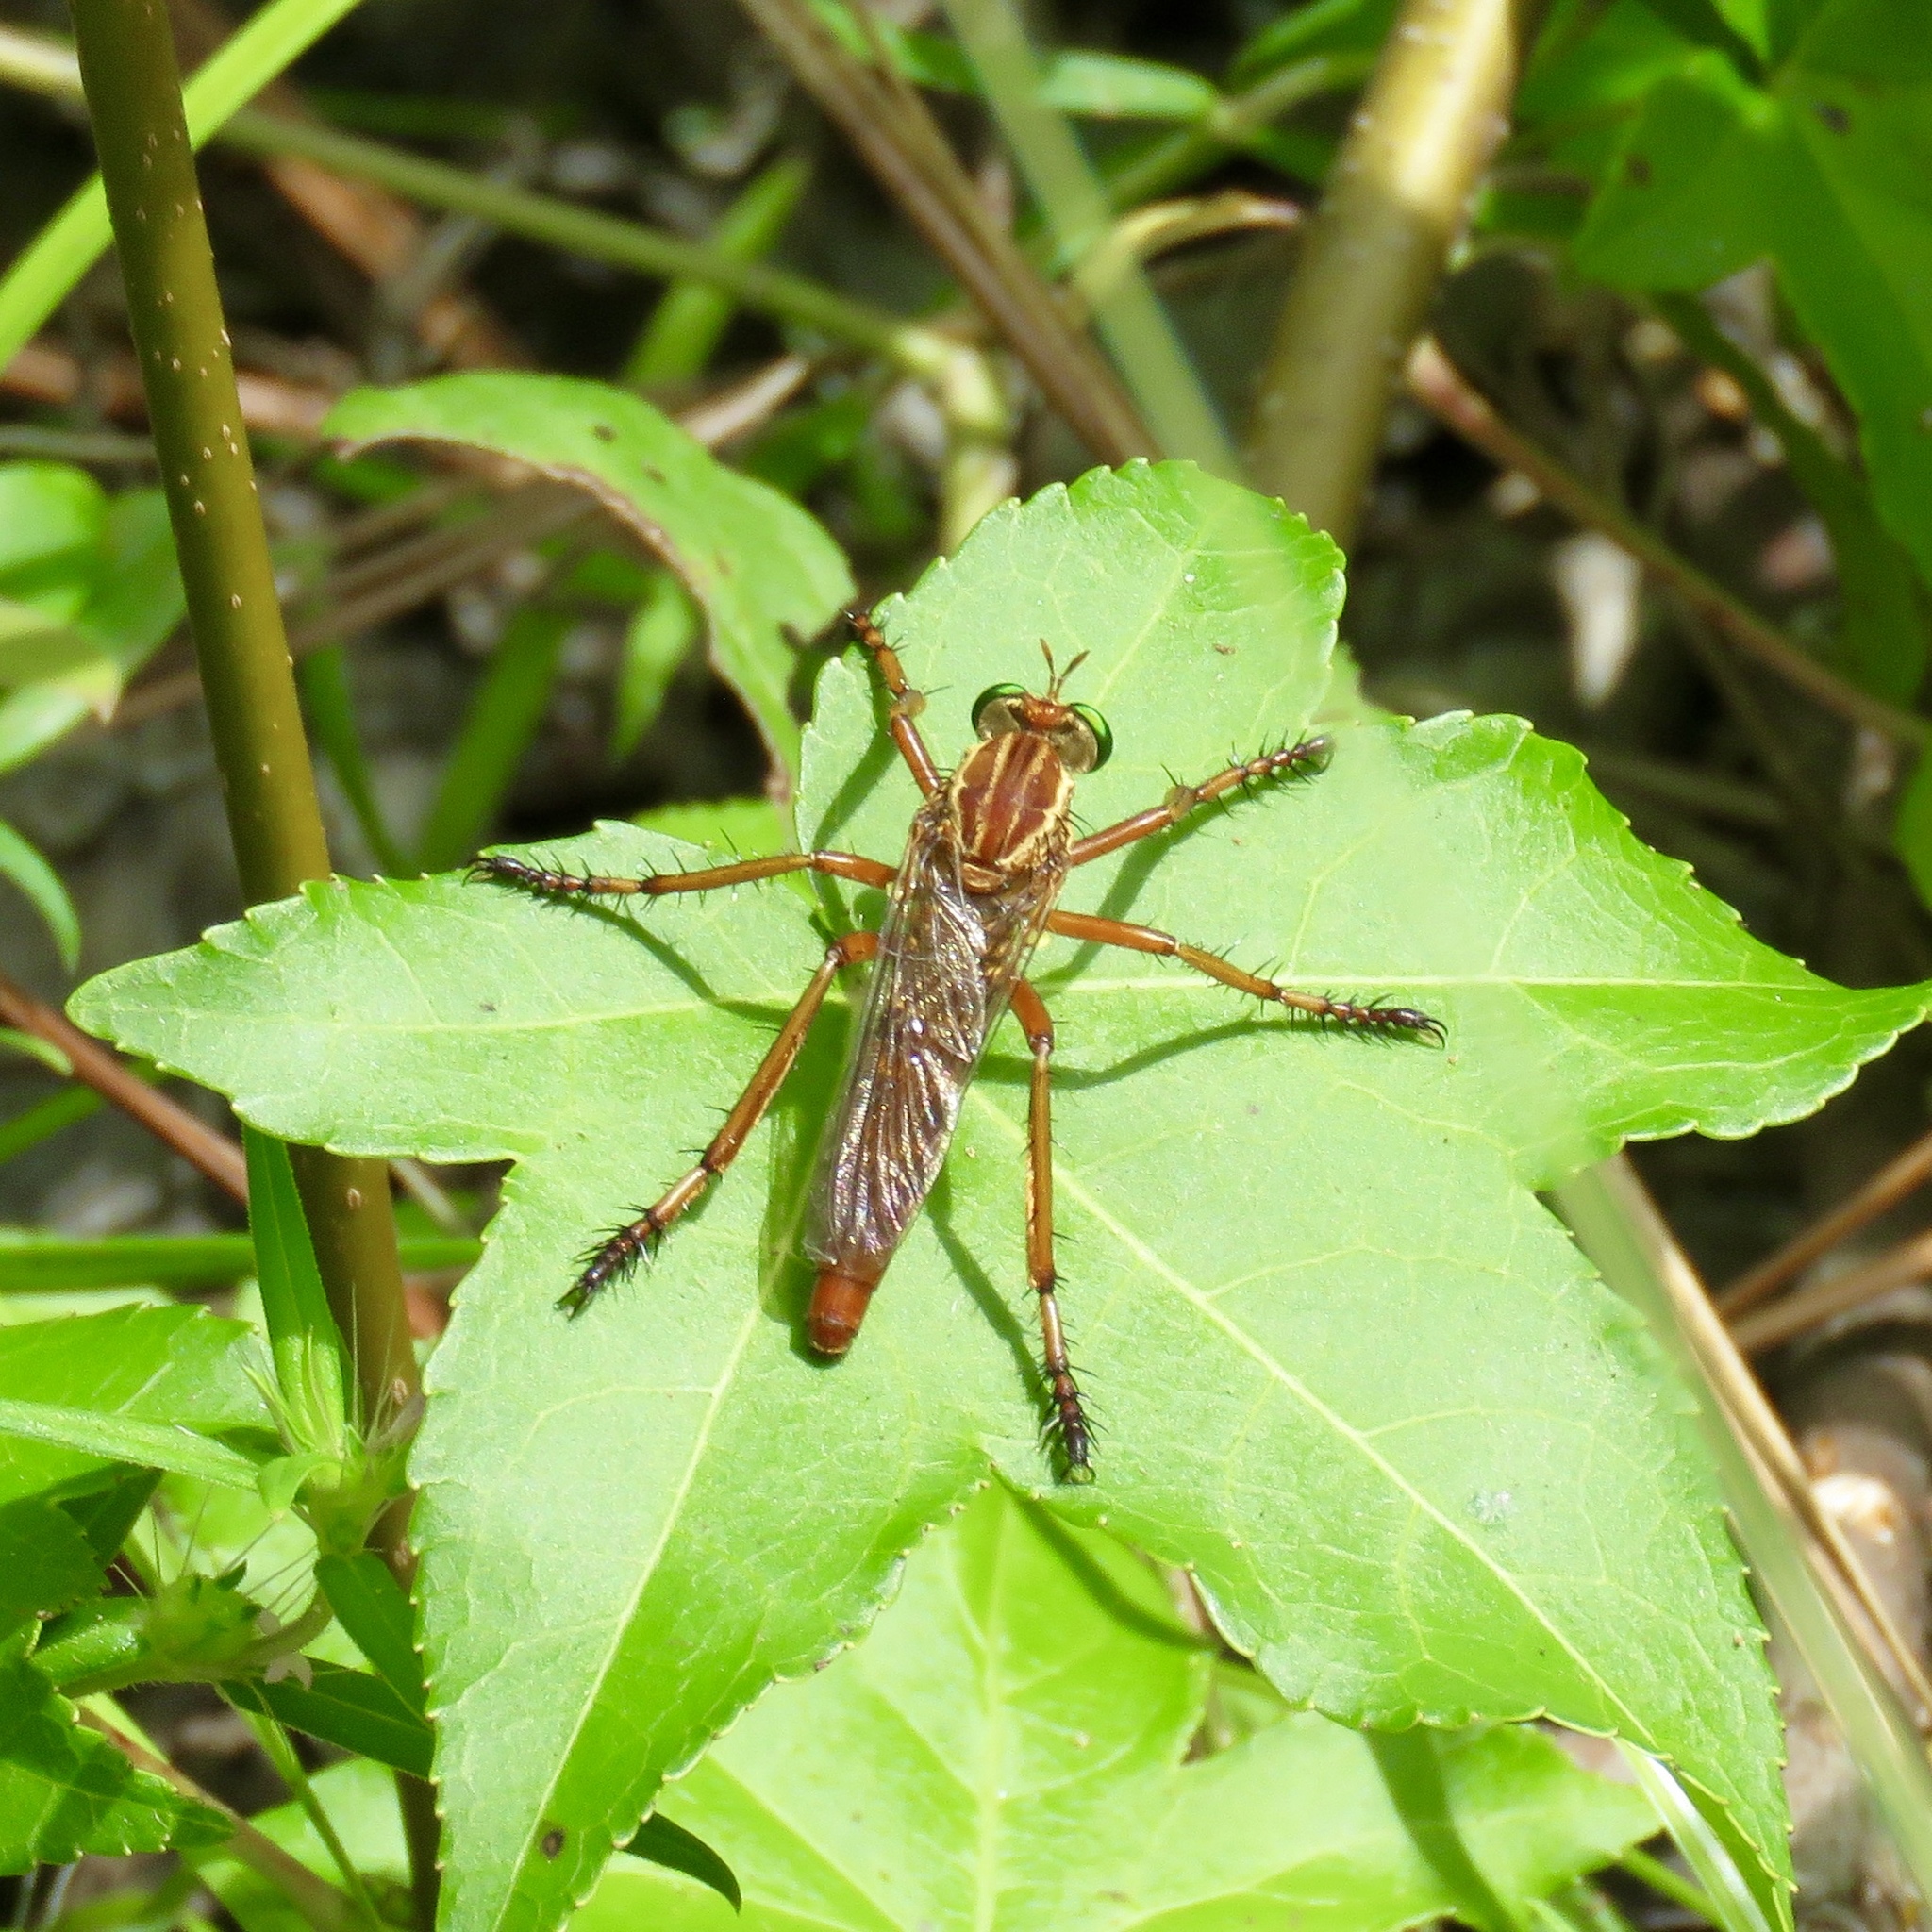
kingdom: Animalia
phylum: Arthropoda
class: Insecta
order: Diptera
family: Asilidae
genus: Diogmites
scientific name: Diogmites neoternatus
